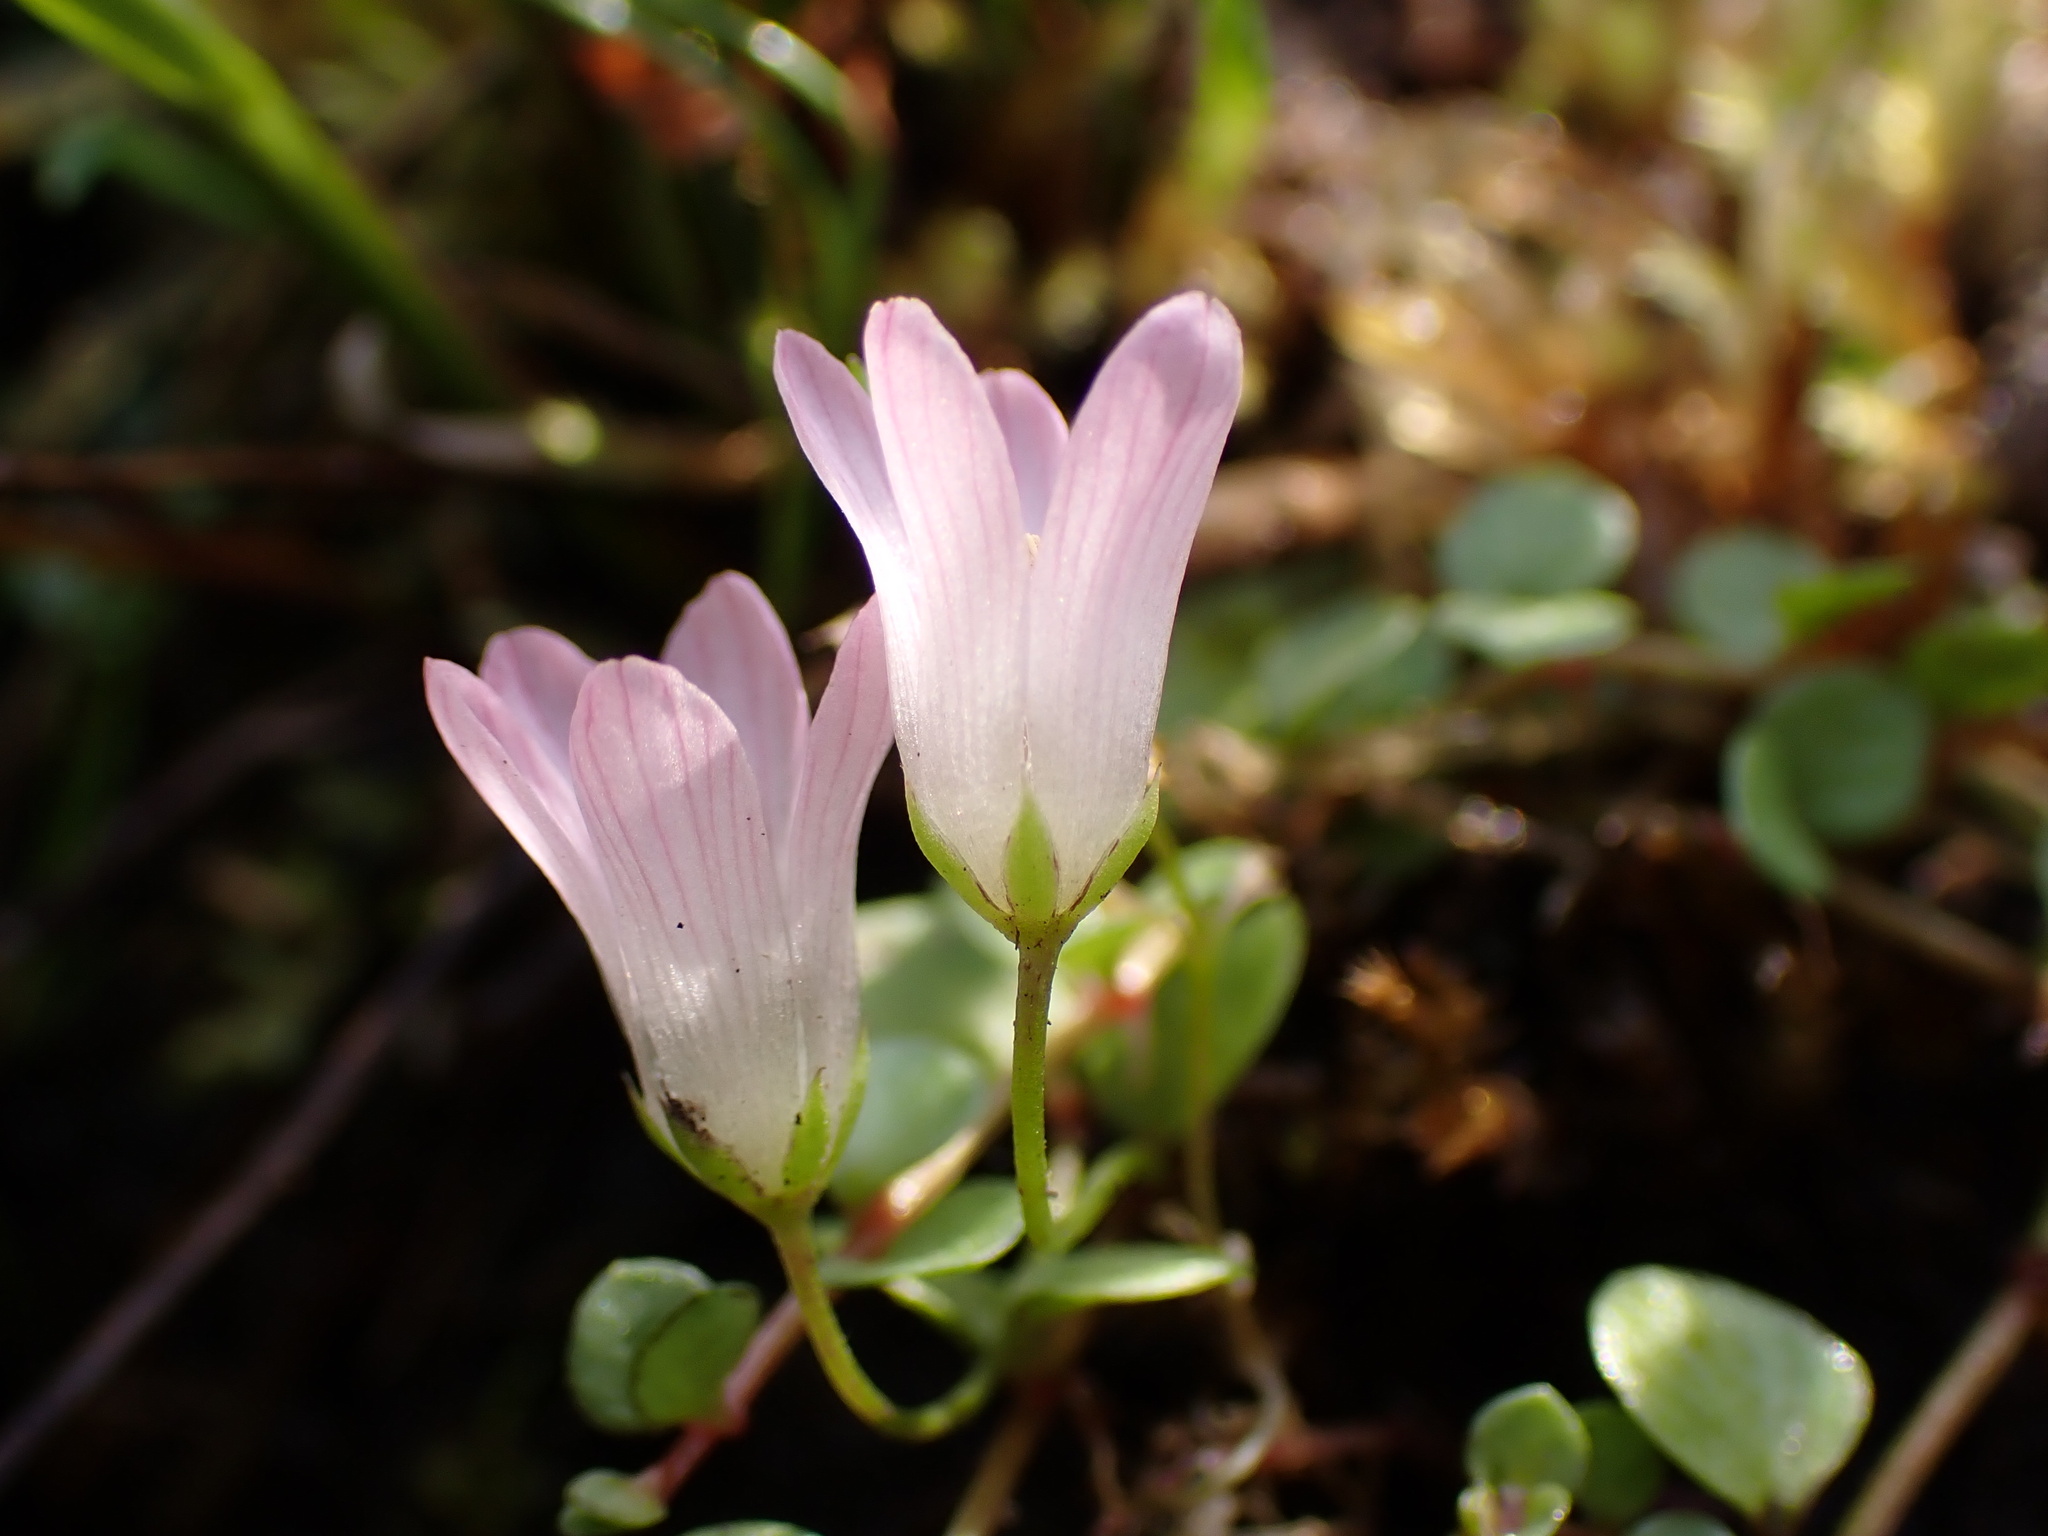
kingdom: Plantae
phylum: Tracheophyta
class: Magnoliopsida
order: Ericales
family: Primulaceae
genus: Lysimachia
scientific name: Lysimachia tenella
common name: European bog pimpernel
